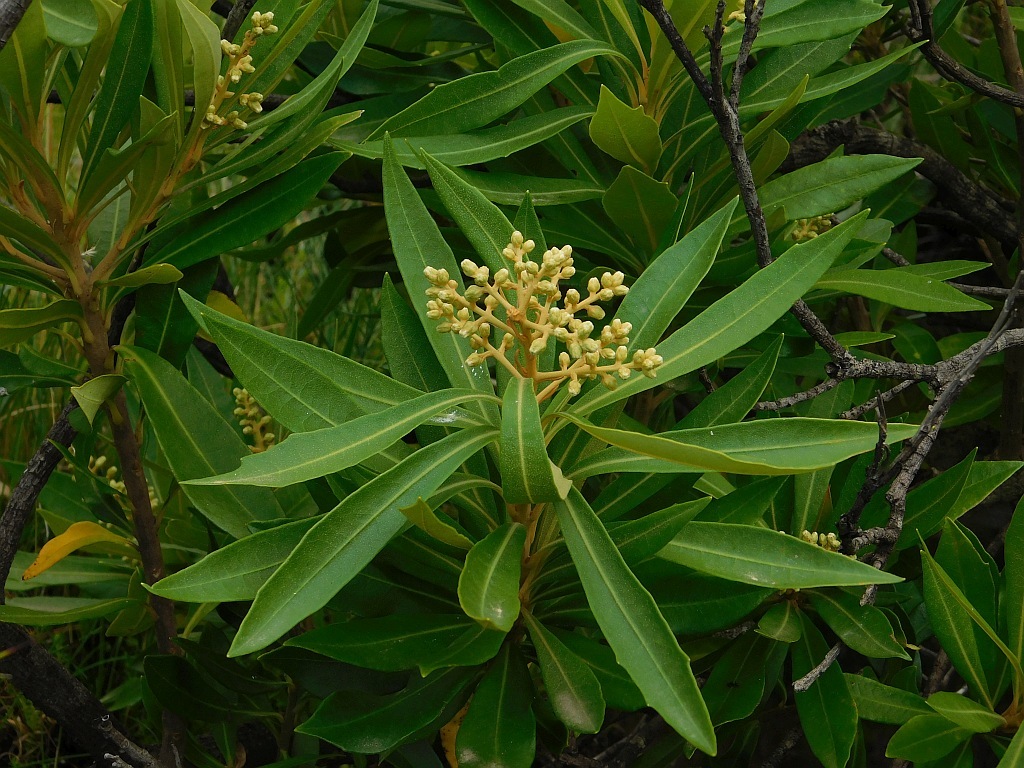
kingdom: Plantae
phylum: Tracheophyta
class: Magnoliopsida
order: Asterales
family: Asteraceae
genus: Brachylaena
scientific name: Brachylaena neriifolia
